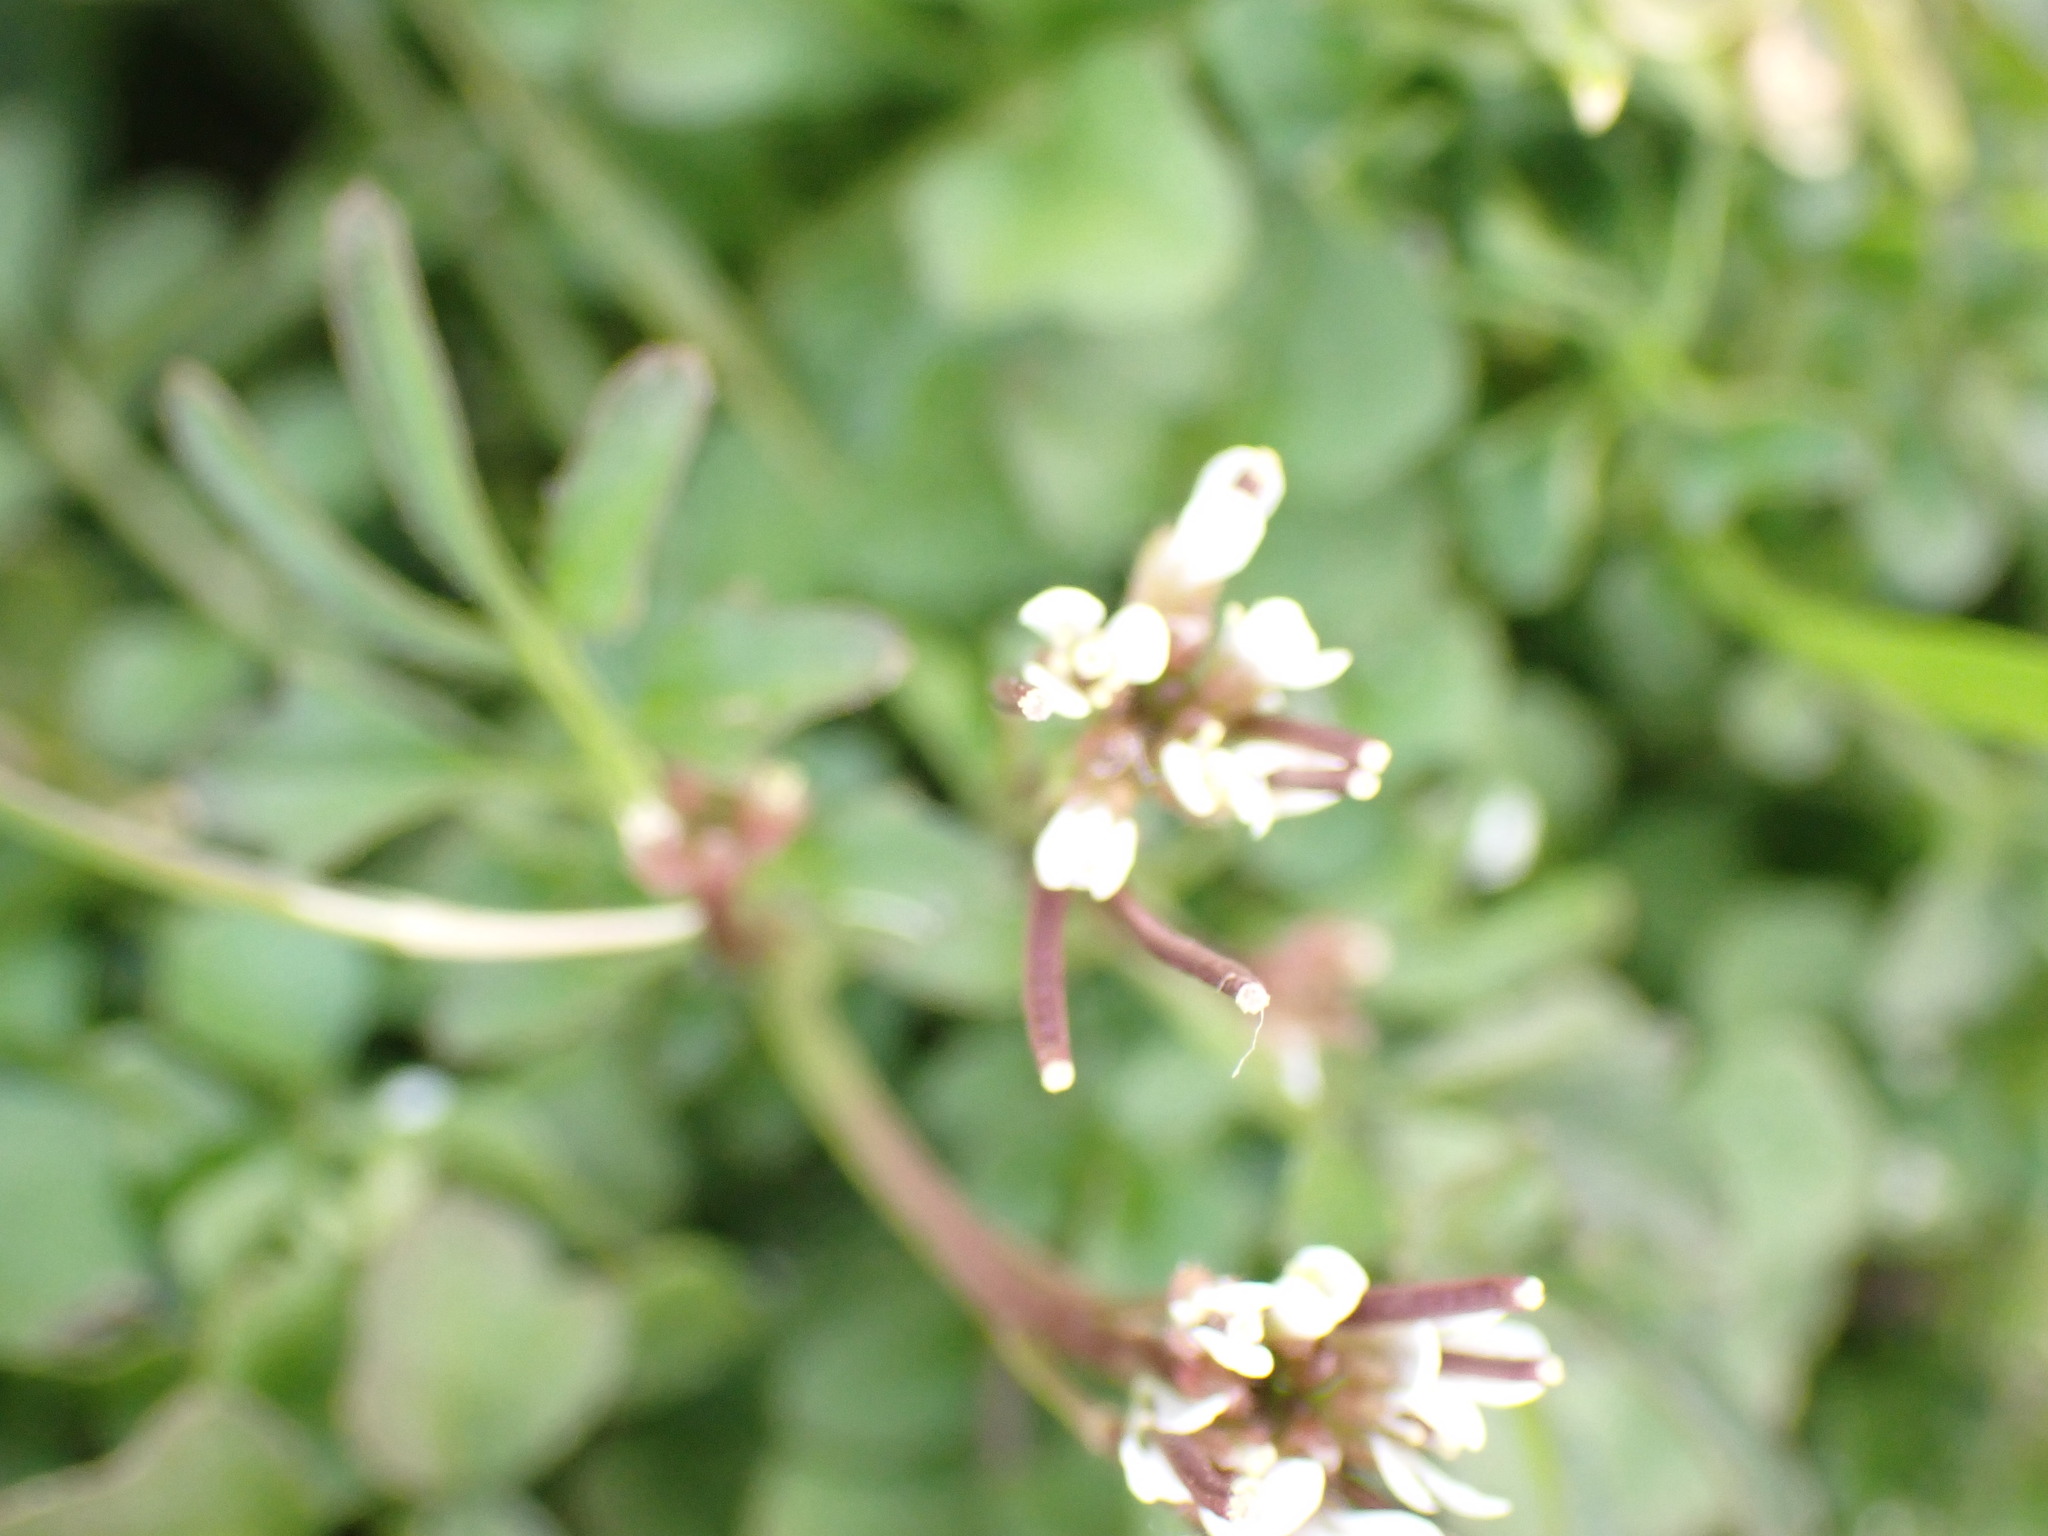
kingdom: Plantae
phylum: Tracheophyta
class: Magnoliopsida
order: Brassicales
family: Brassicaceae
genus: Cardamine
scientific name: Cardamine hirsuta
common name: Hairy bittercress
